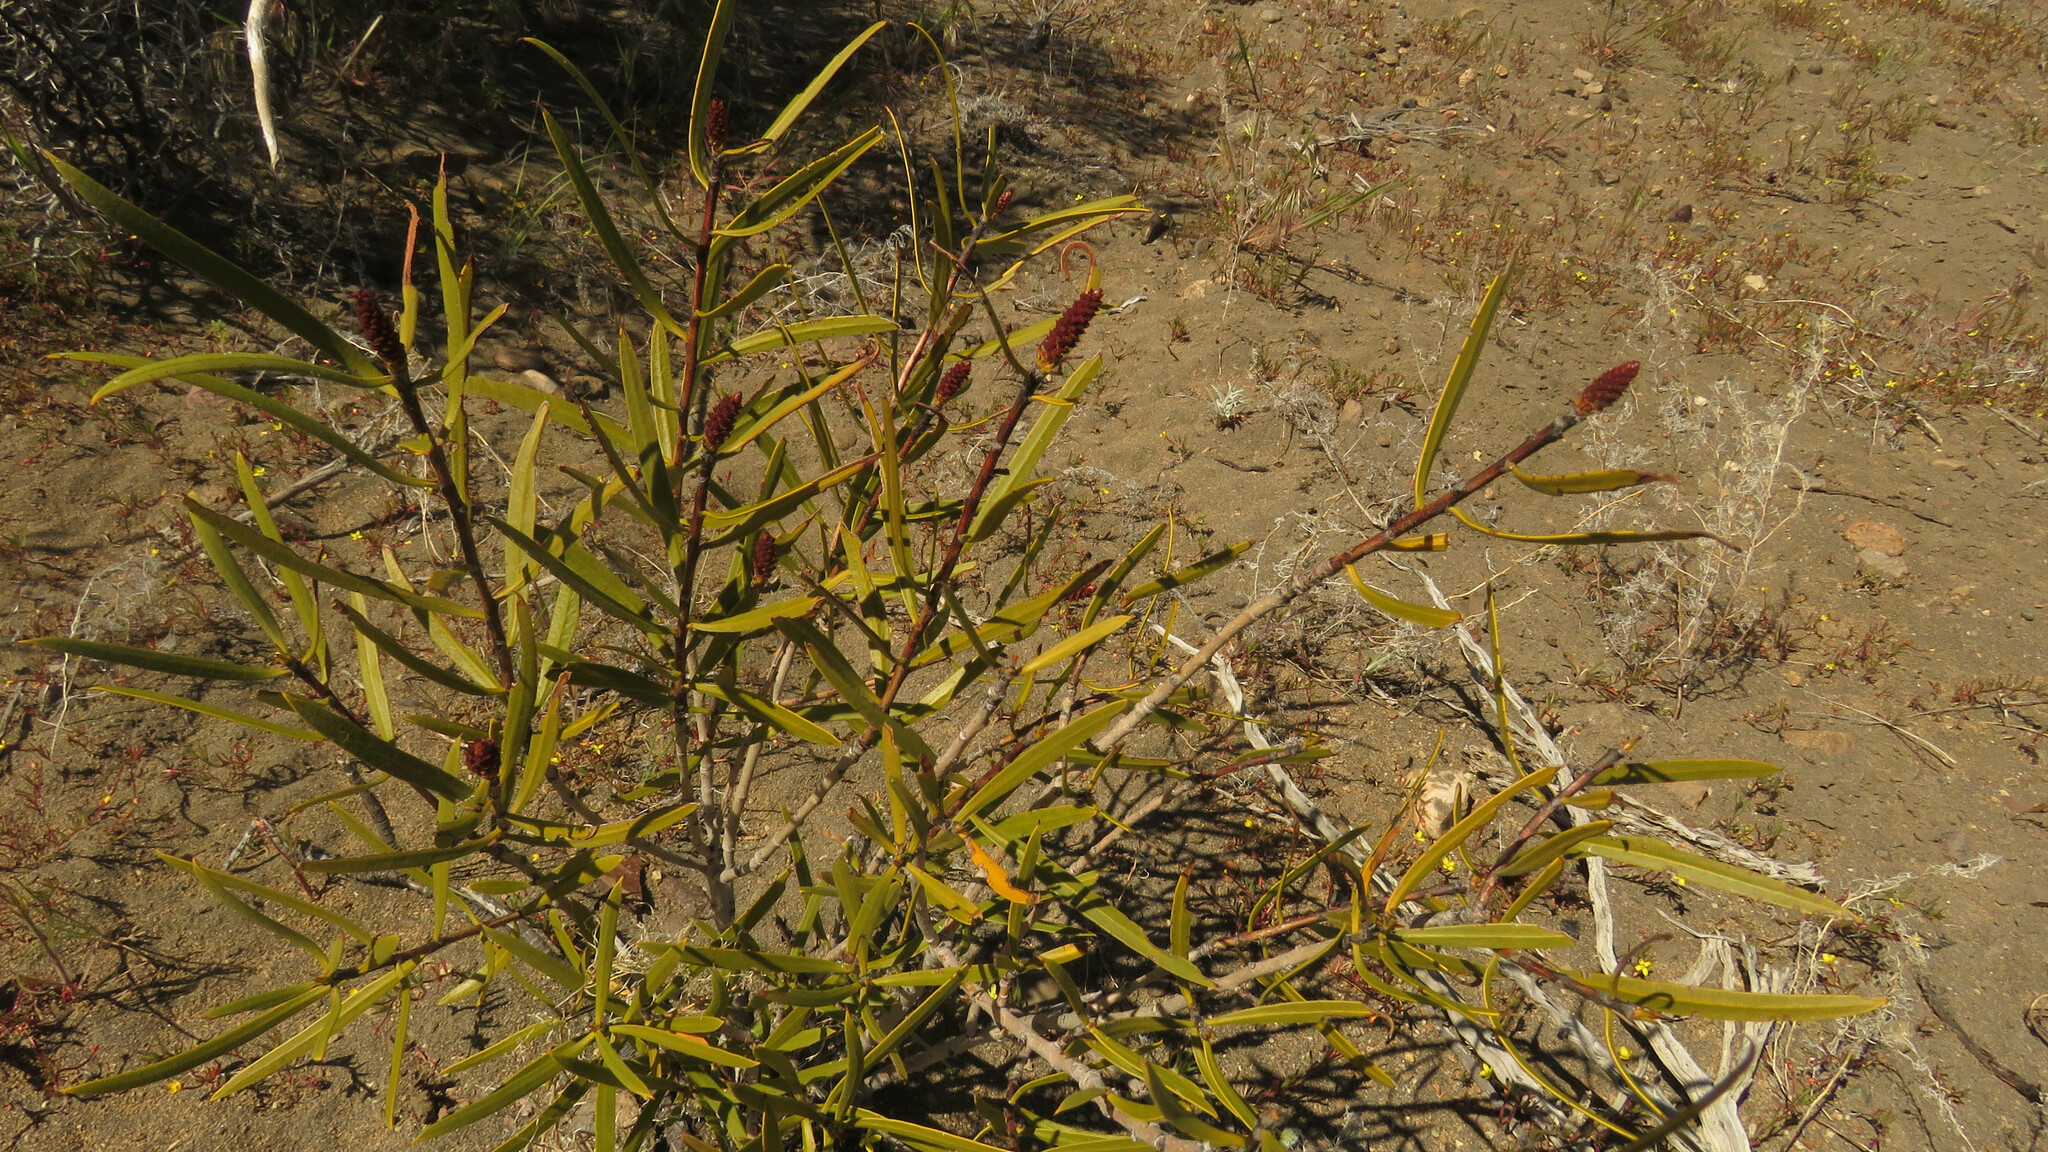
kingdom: Plantae
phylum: Tracheophyta
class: Magnoliopsida
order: Malpighiales
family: Euphorbiaceae
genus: Colliguaja
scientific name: Colliguaja integerrima
